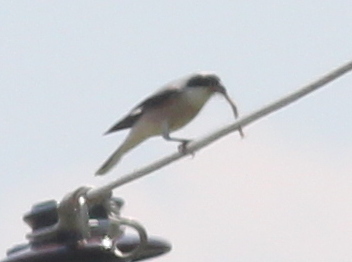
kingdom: Animalia
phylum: Chordata
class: Aves
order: Passeriformes
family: Laniidae
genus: Lanius
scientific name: Lanius minor
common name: Lesser grey shrike
